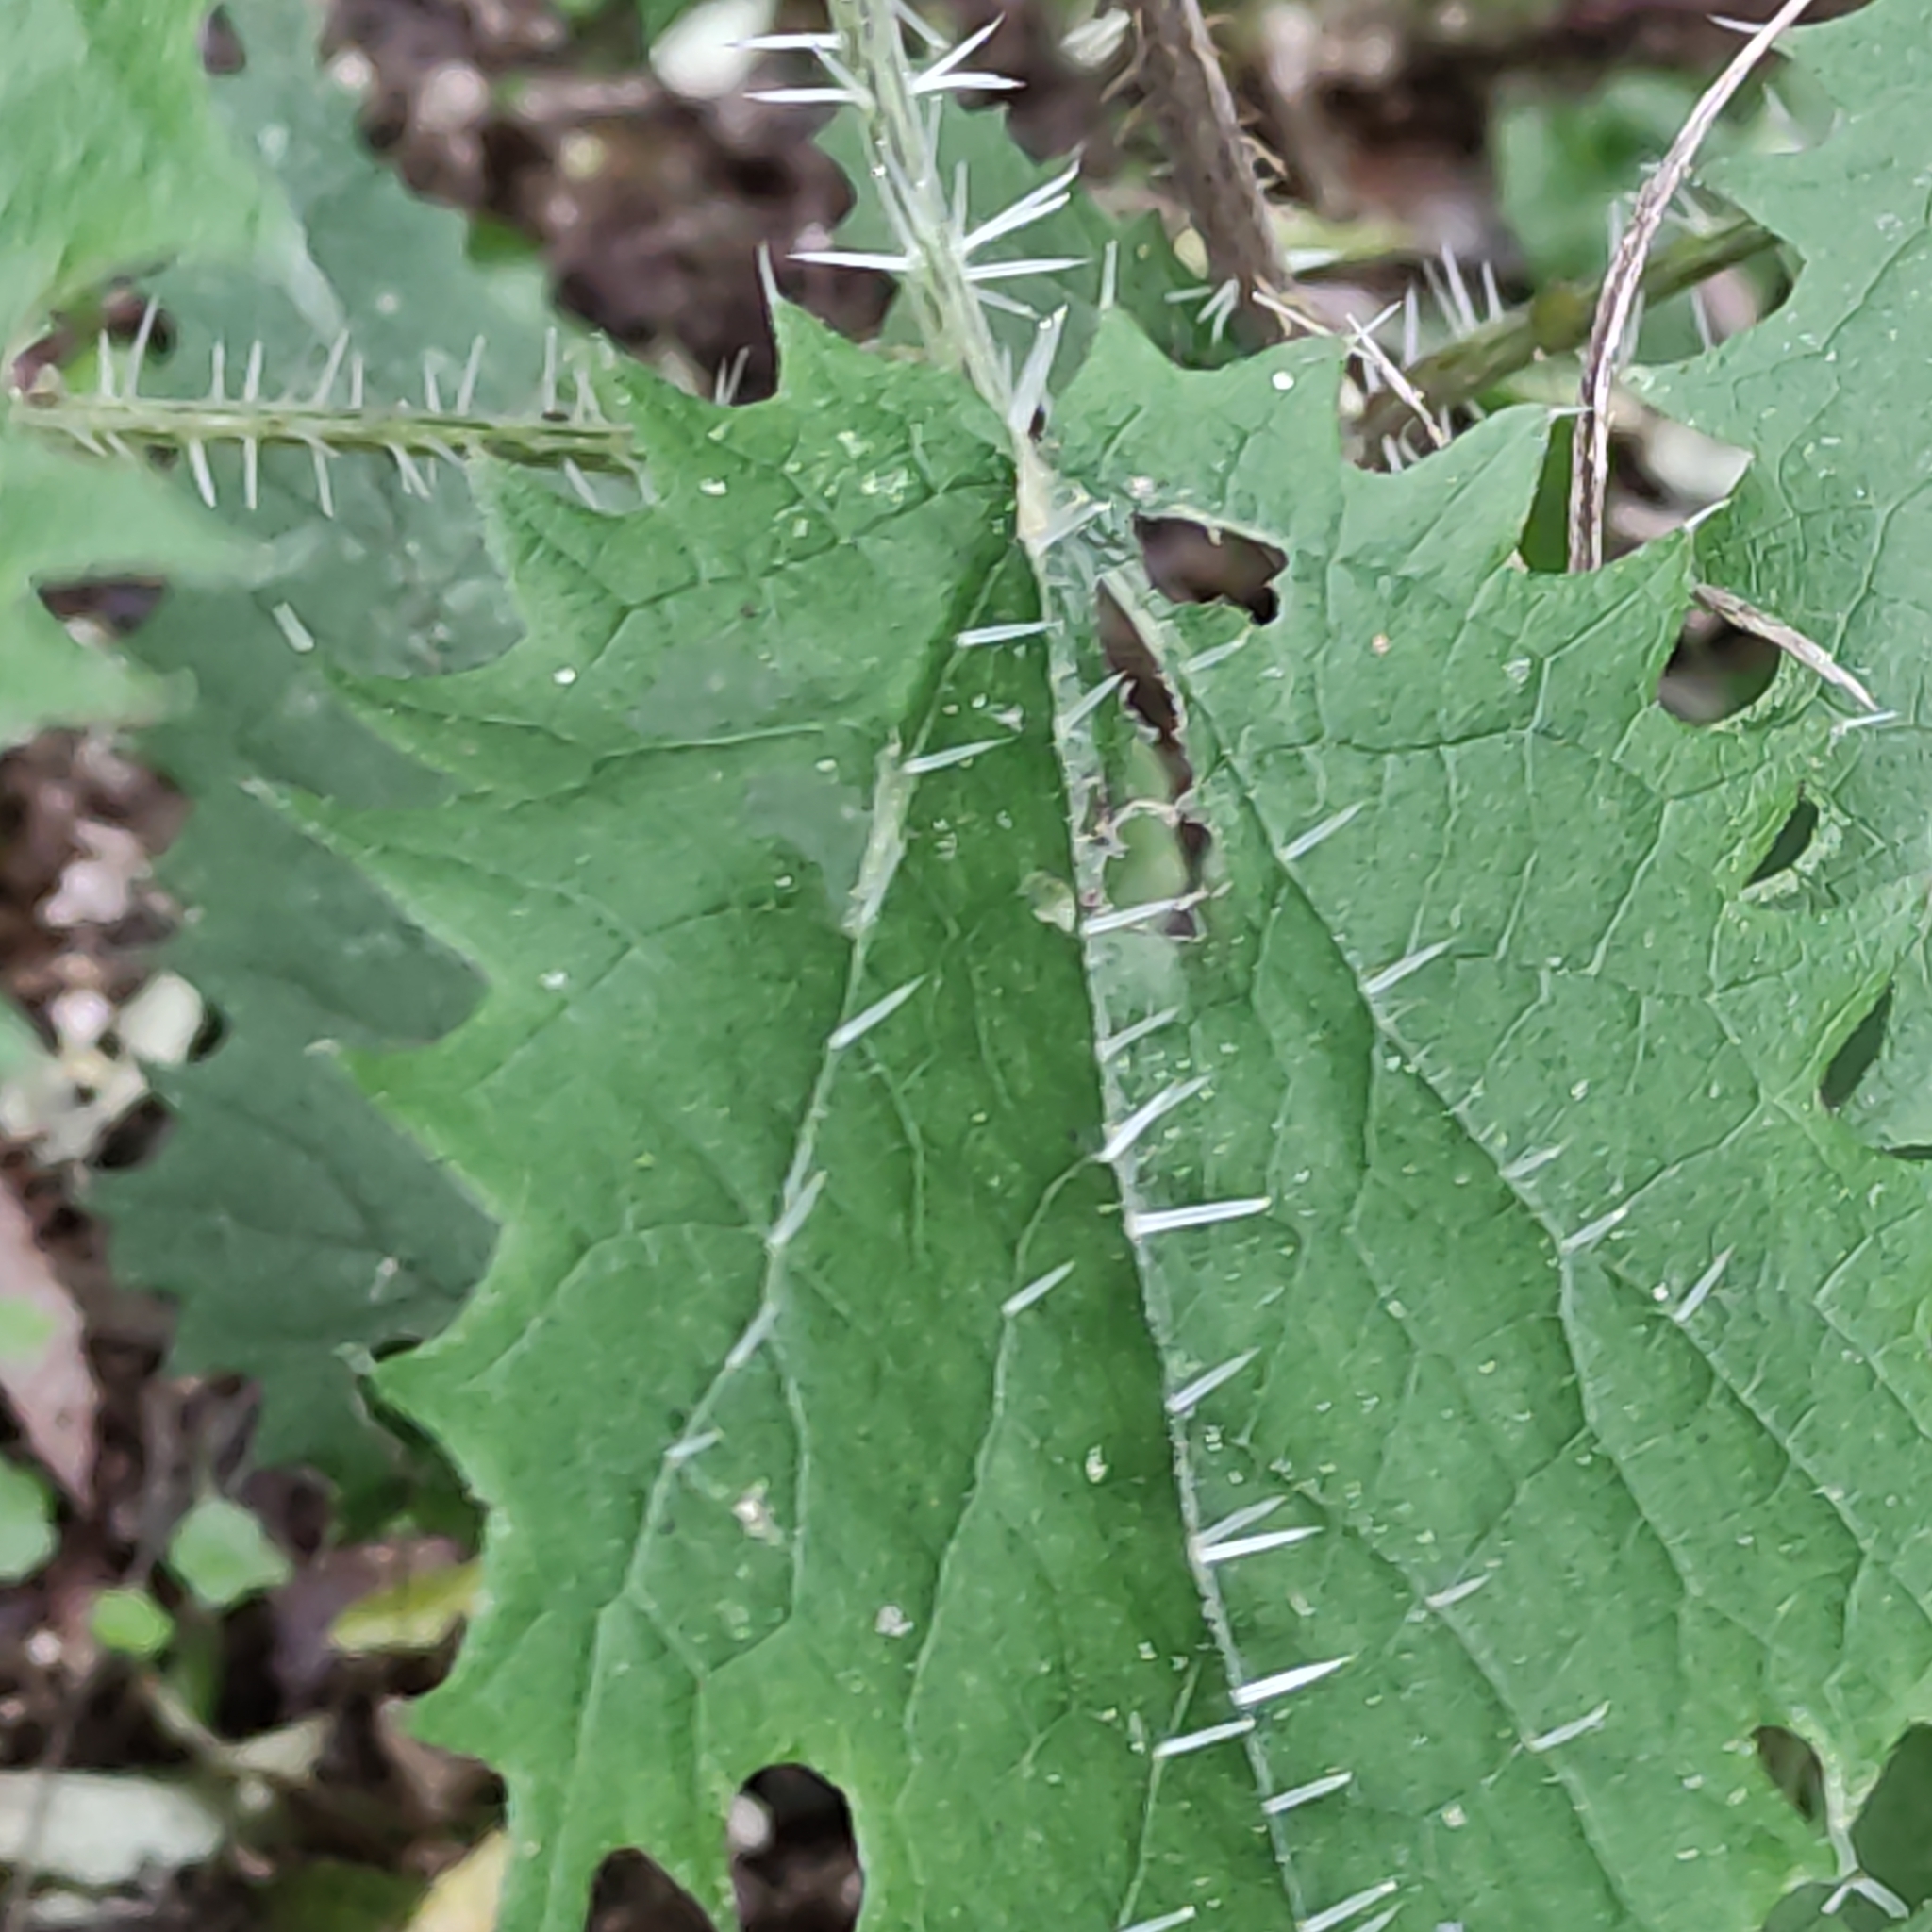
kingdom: Plantae
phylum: Tracheophyta
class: Magnoliopsida
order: Rosales
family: Urticaceae
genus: Urtica
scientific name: Urtica ferox
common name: Tree nettle
